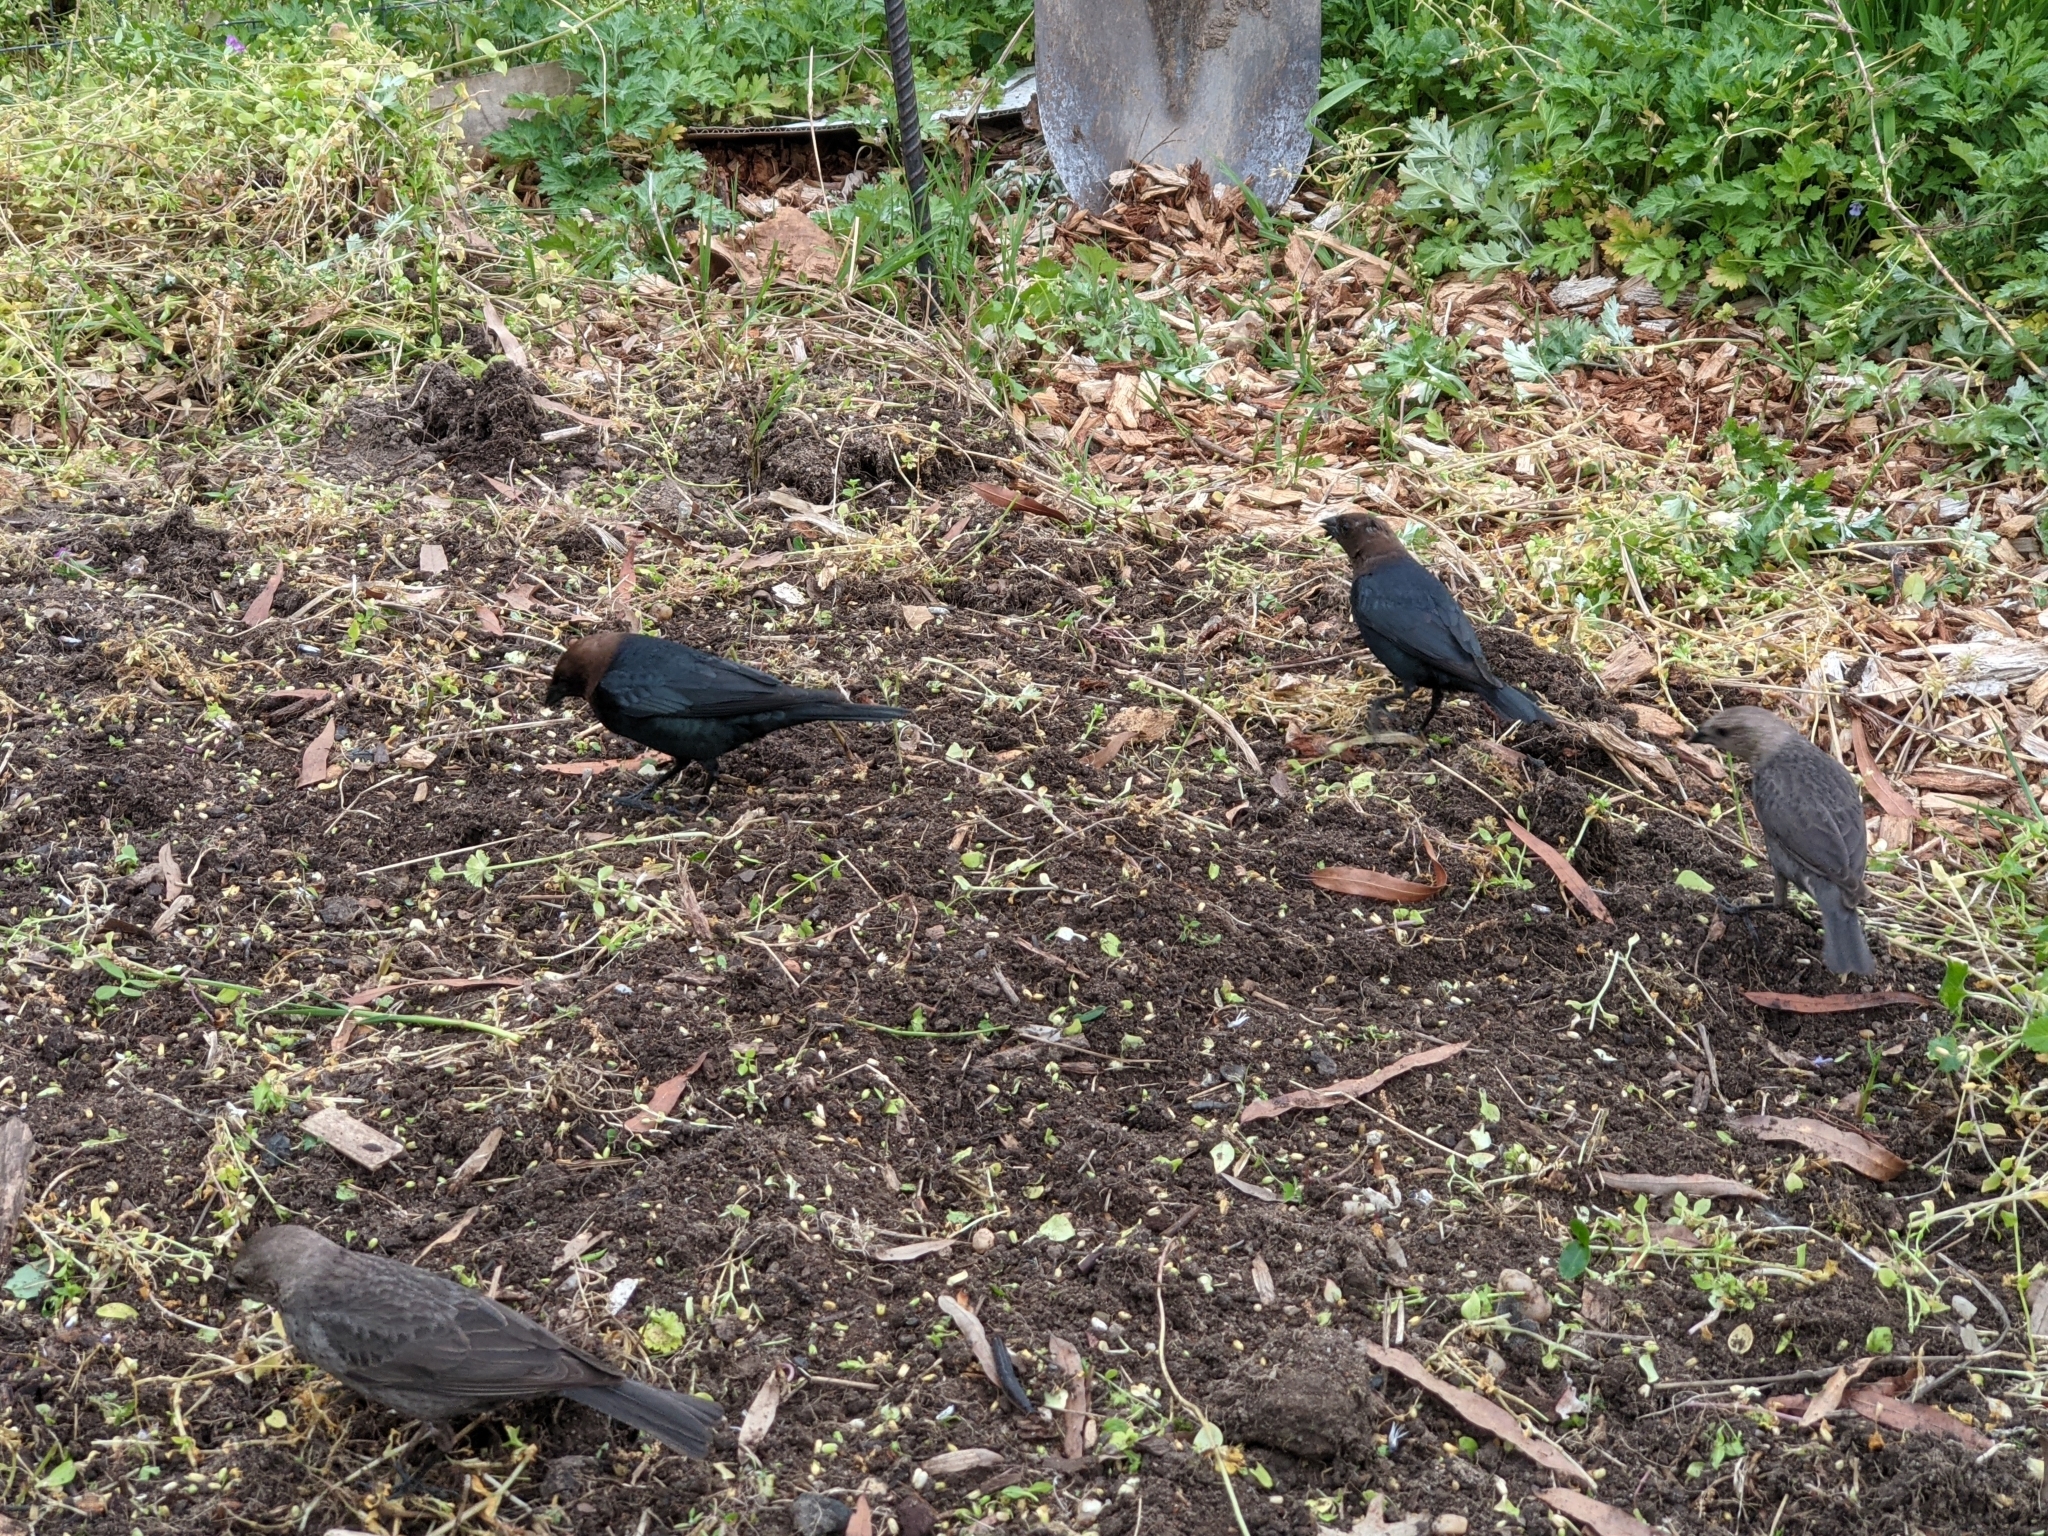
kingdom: Animalia
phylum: Chordata
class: Aves
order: Passeriformes
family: Icteridae
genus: Molothrus
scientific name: Molothrus ater
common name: Brown-headed cowbird
